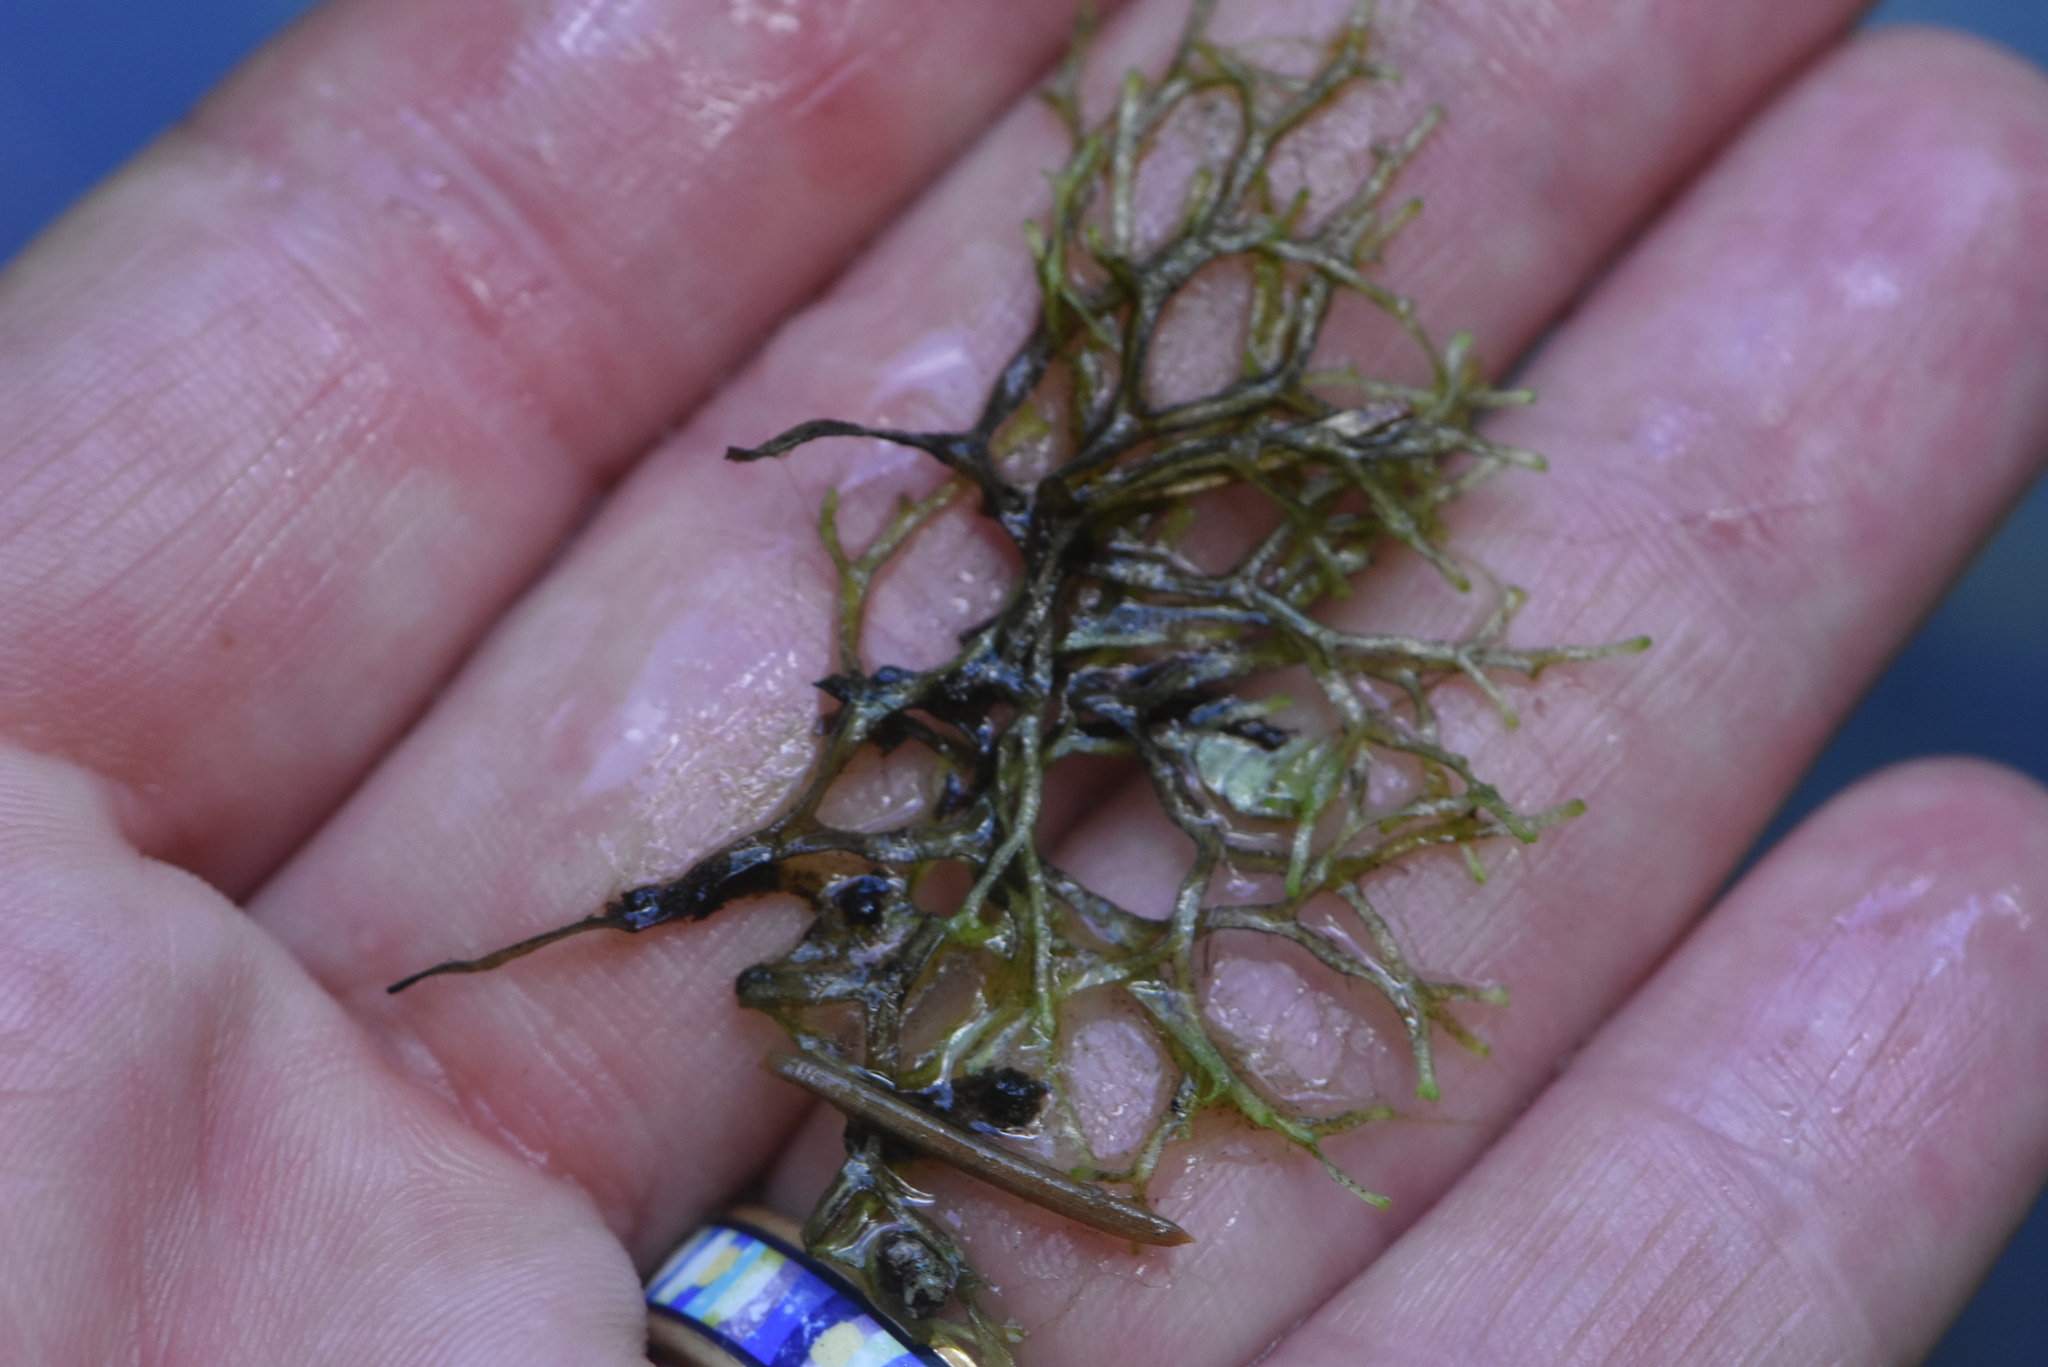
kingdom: Plantae
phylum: Marchantiophyta
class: Marchantiopsida
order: Marchantiales
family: Ricciaceae
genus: Riccia
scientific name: Riccia fluitans
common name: Floating crystalwort
